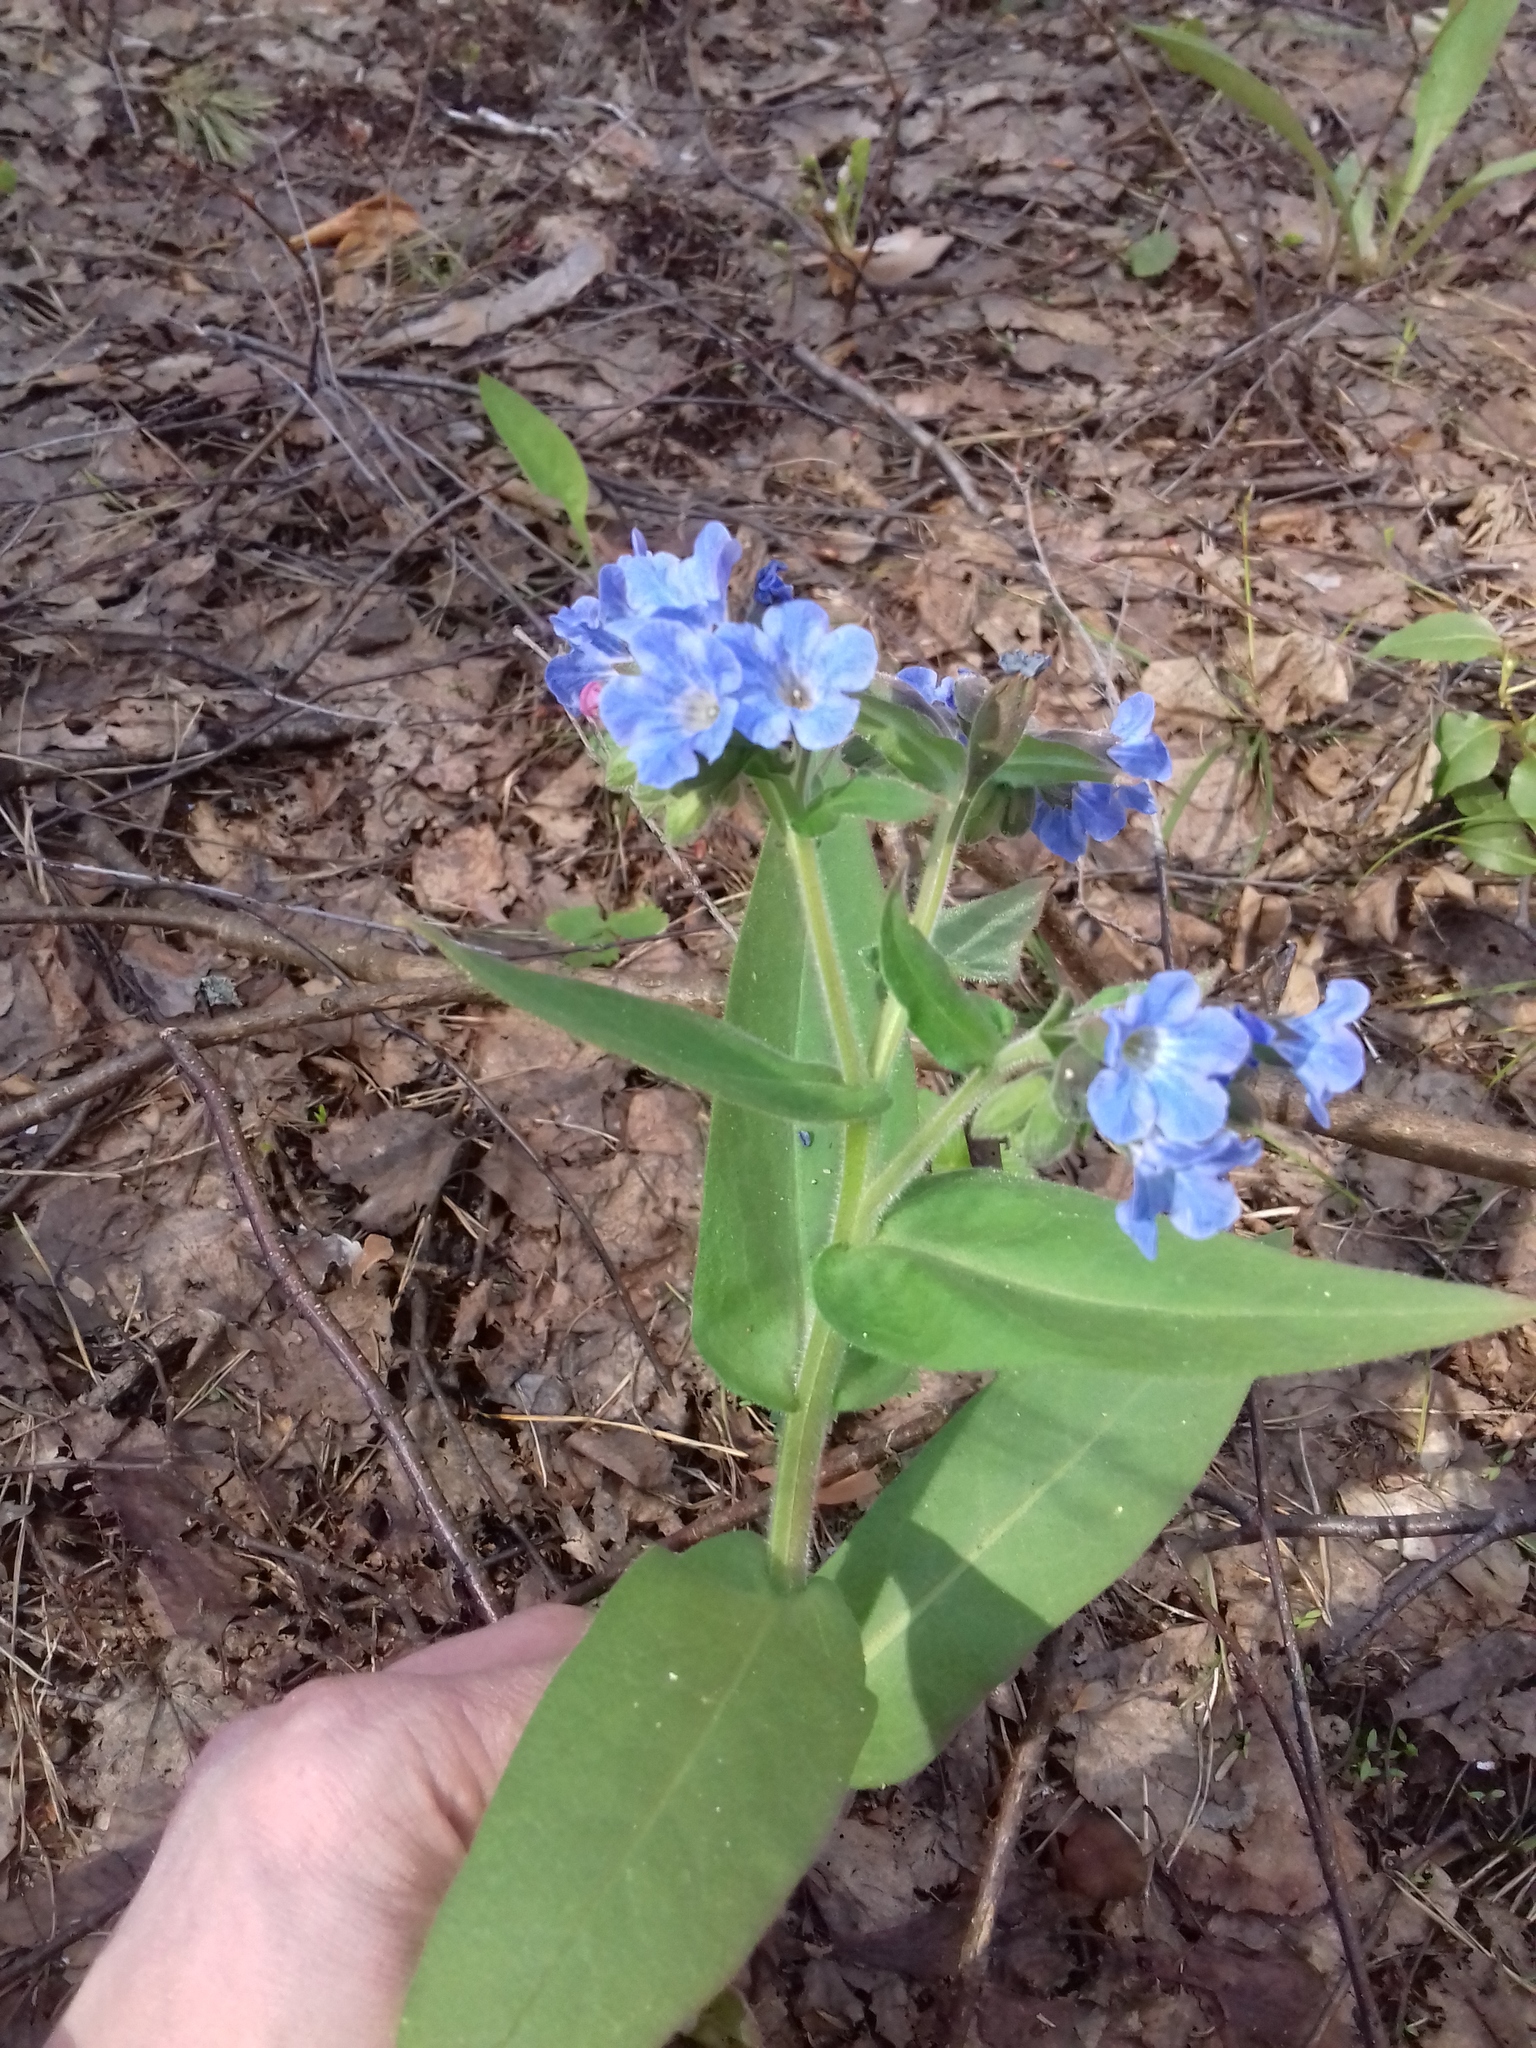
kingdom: Plantae
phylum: Tracheophyta
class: Magnoliopsida
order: Boraginales
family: Boraginaceae
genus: Pulmonaria
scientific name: Pulmonaria mollis
